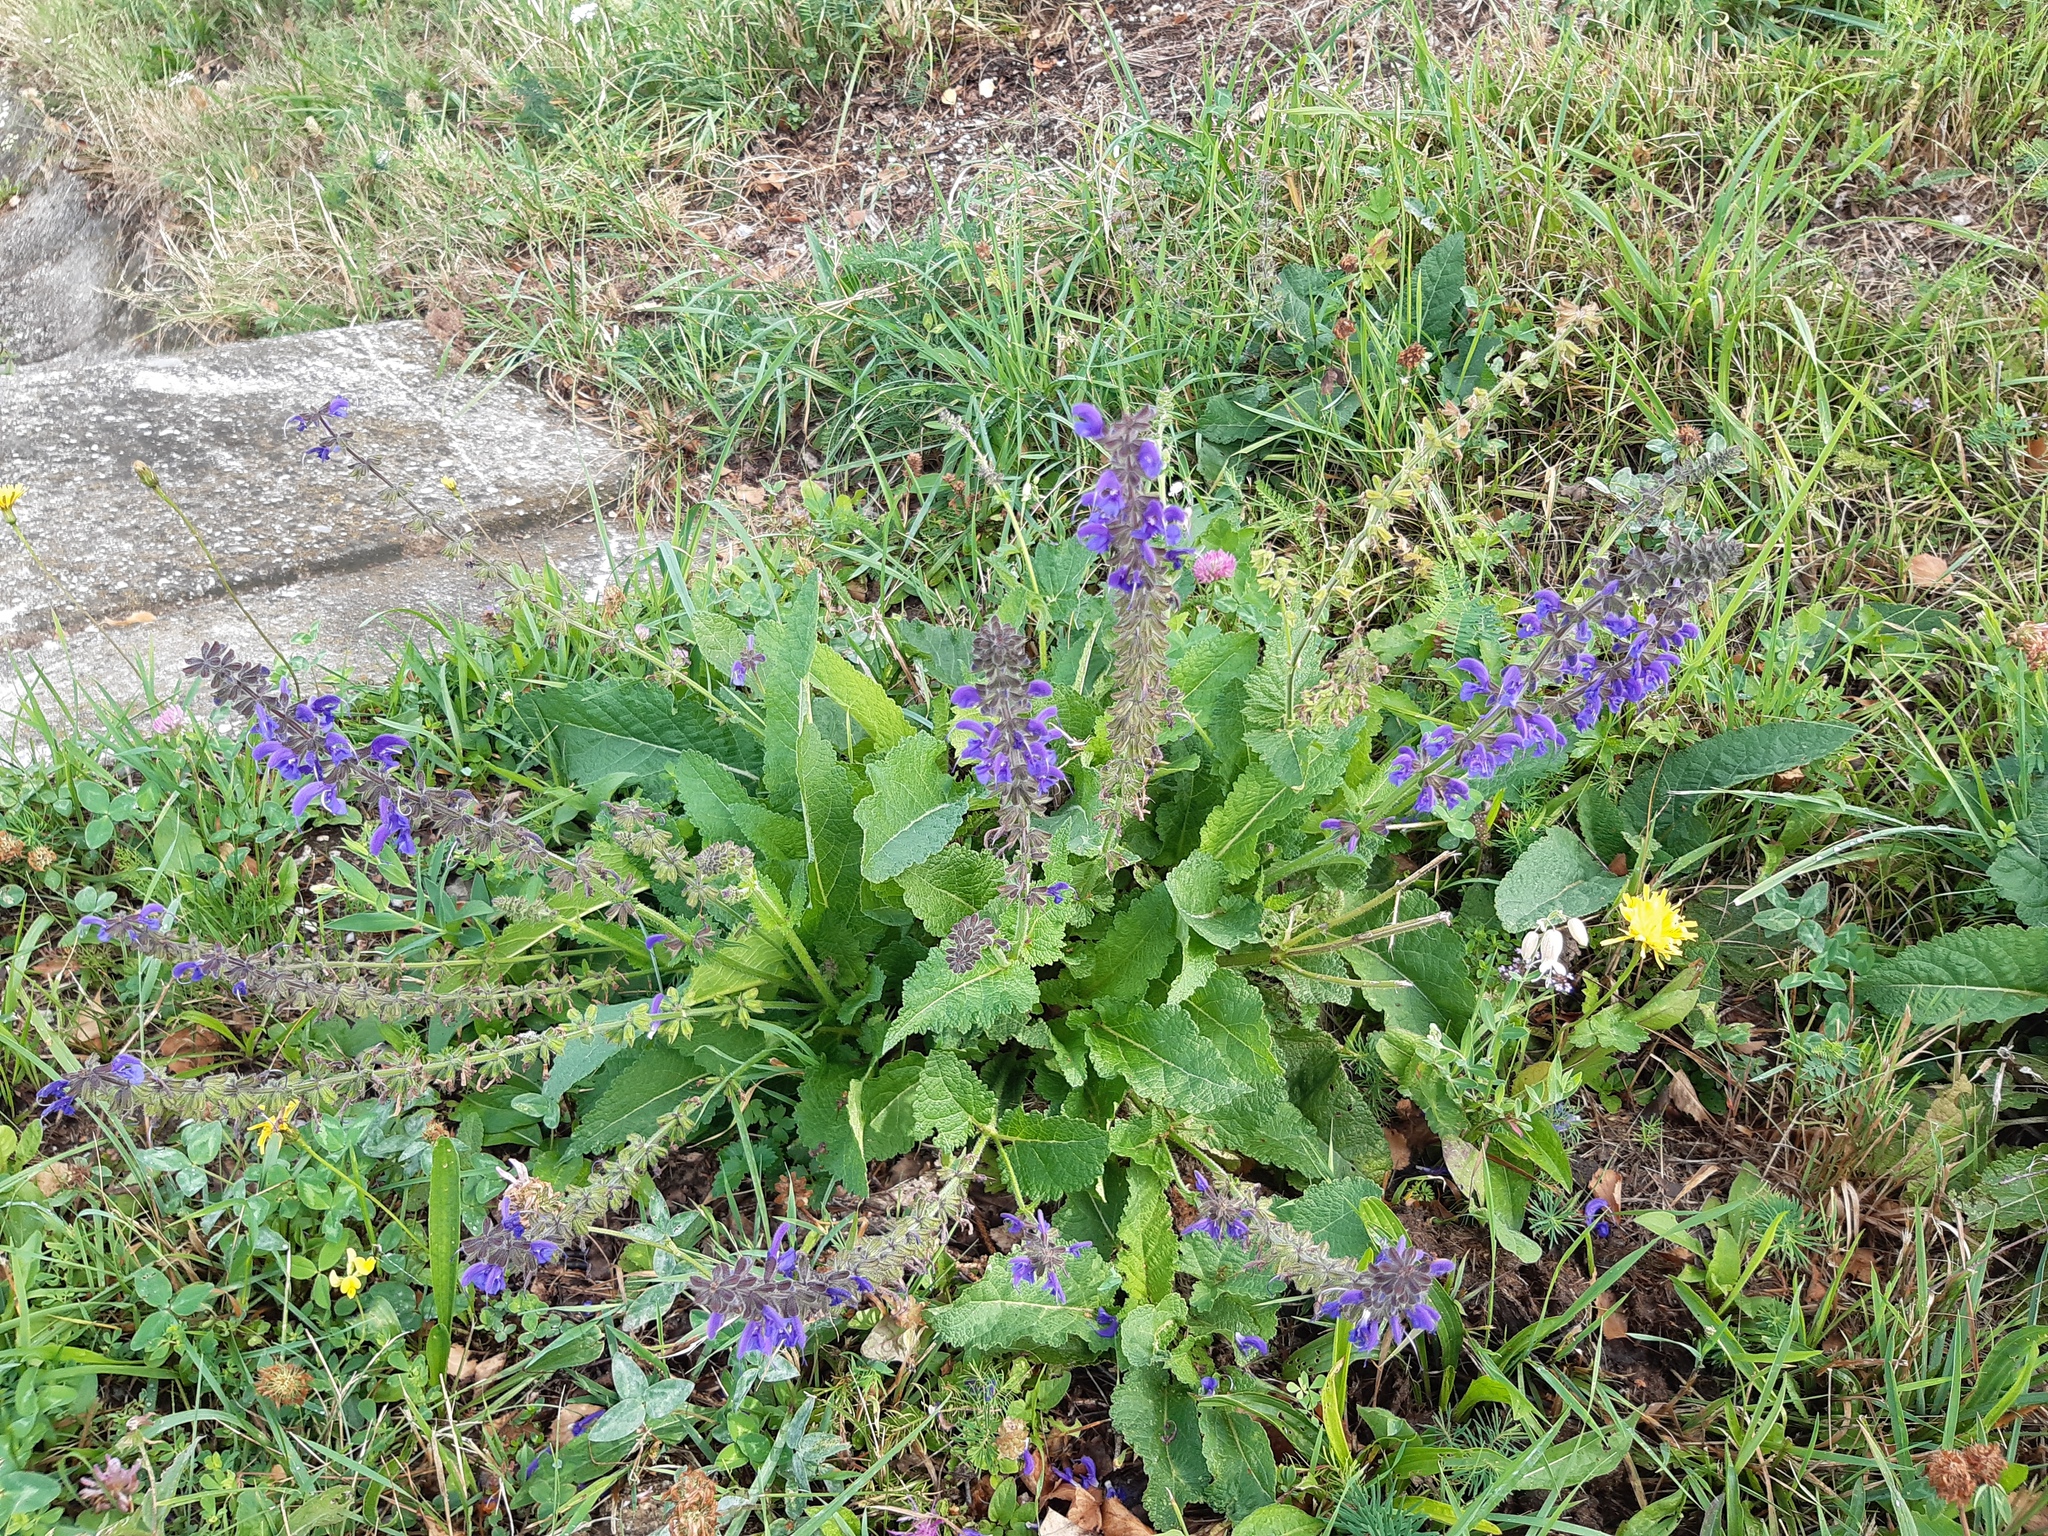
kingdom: Plantae
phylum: Tracheophyta
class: Magnoliopsida
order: Lamiales
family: Lamiaceae
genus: Salvia
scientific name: Salvia pratensis
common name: Meadow sage
